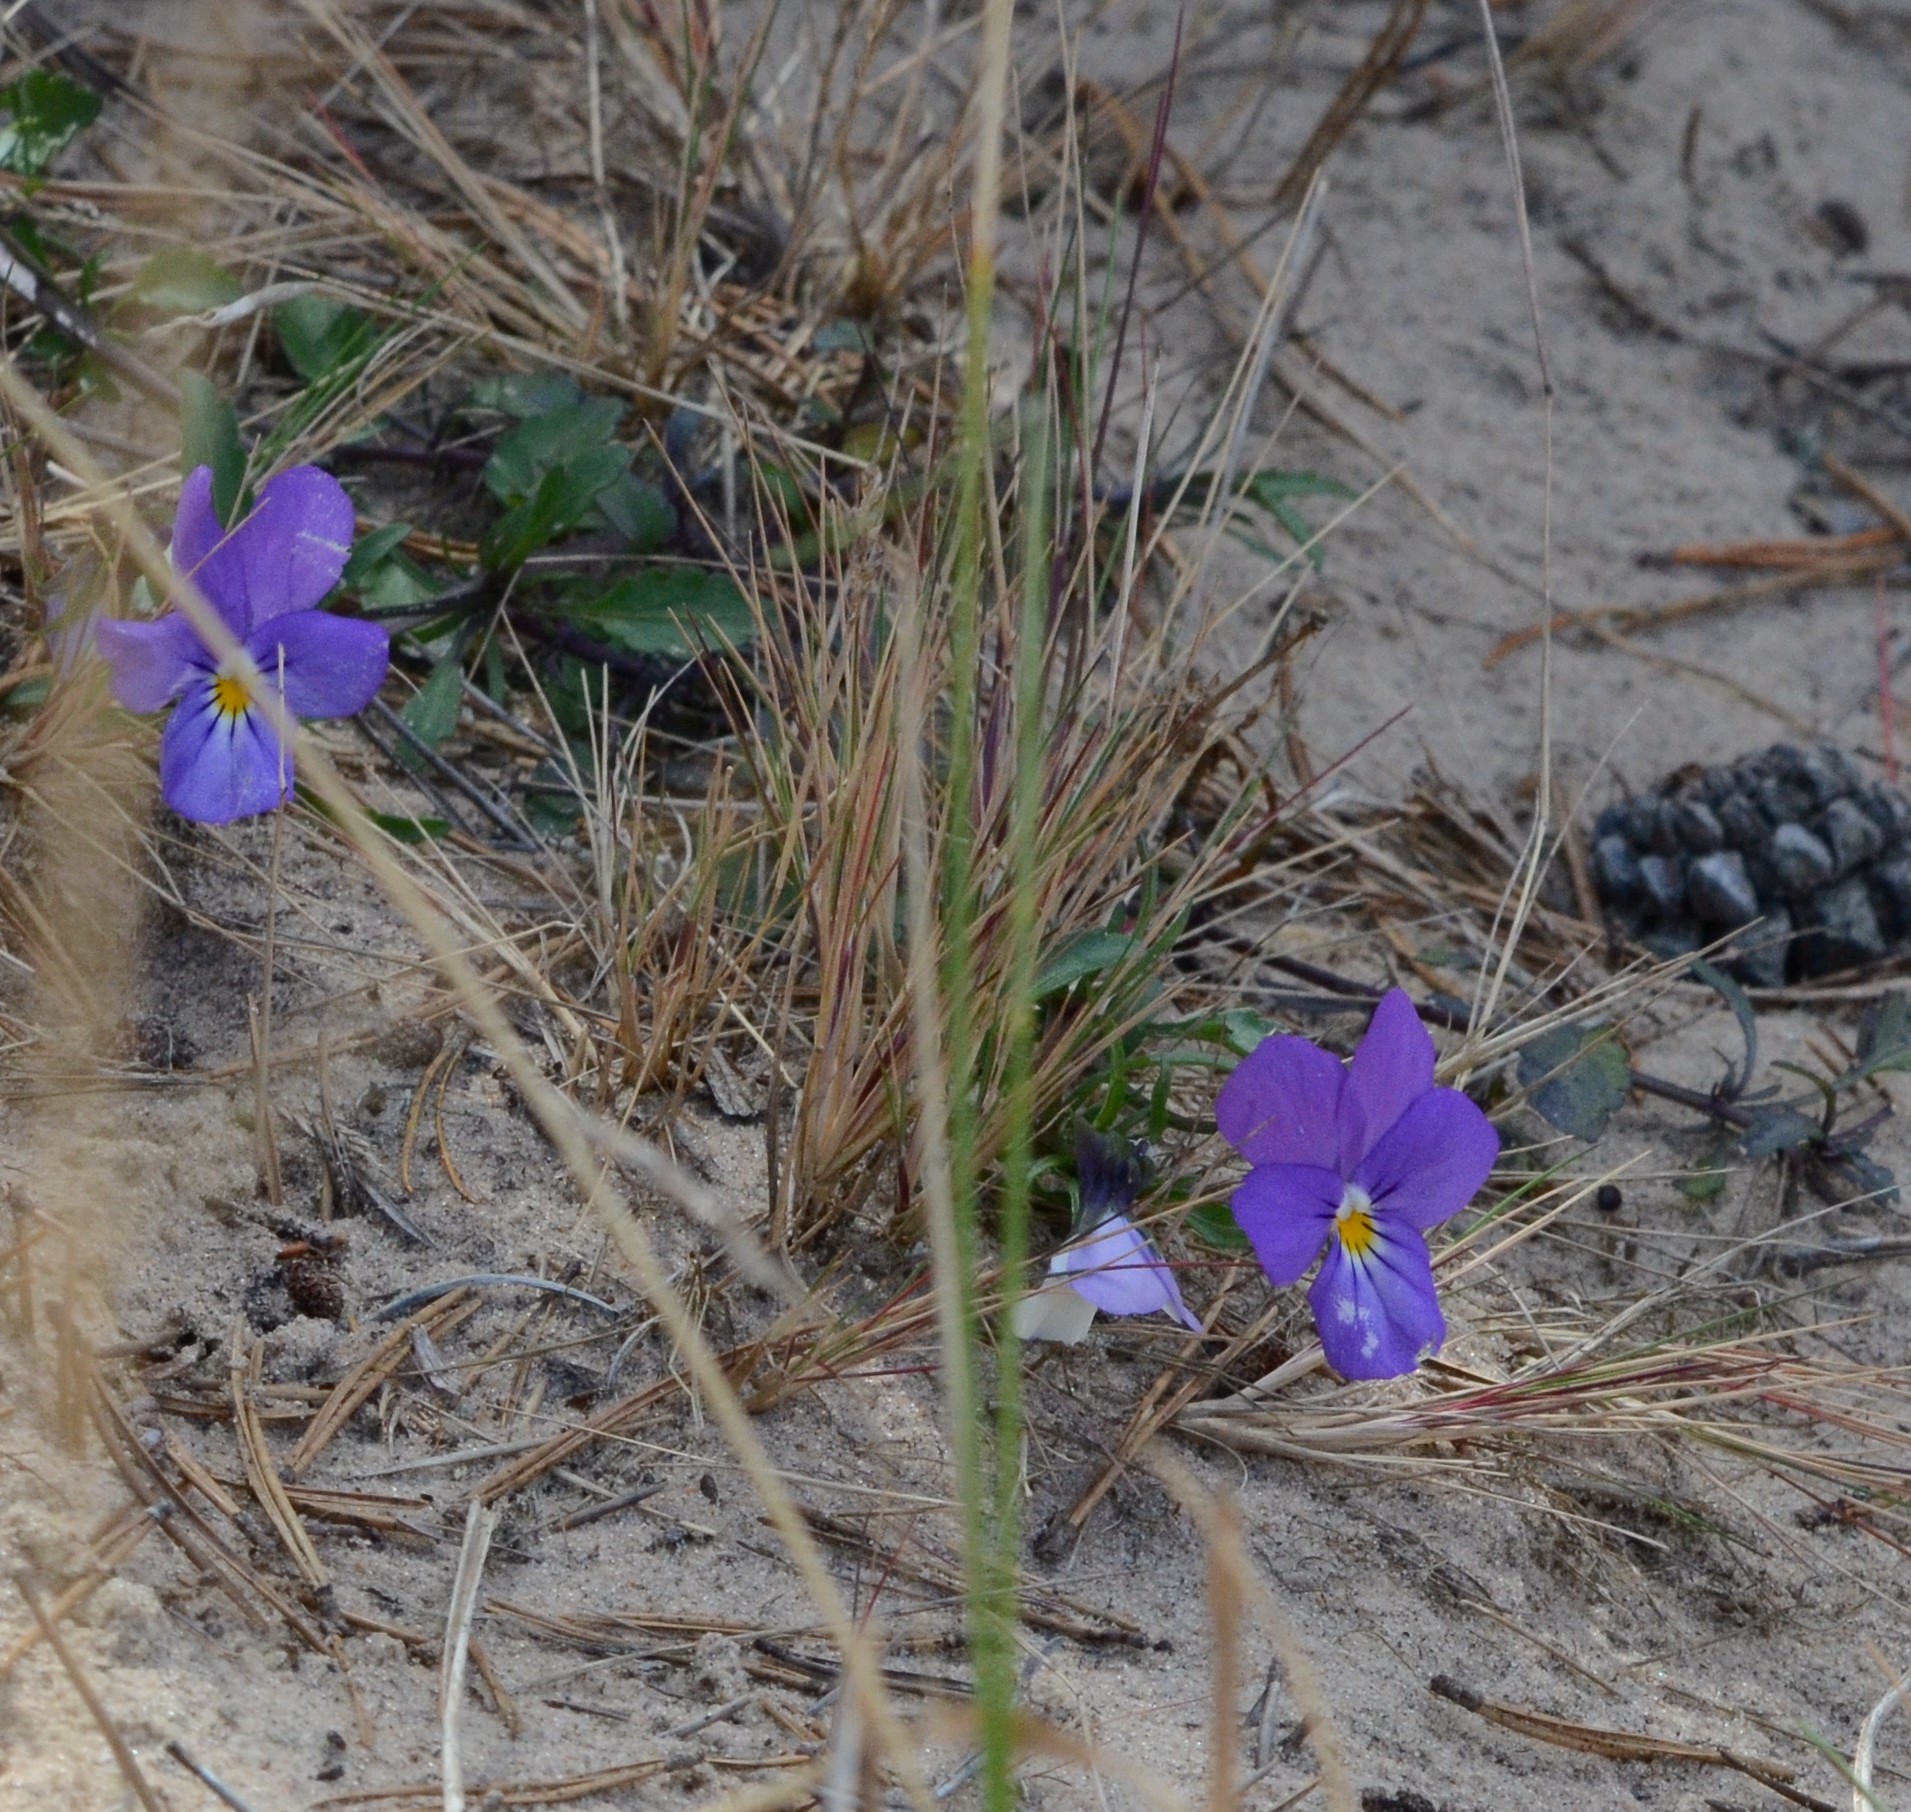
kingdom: Plantae
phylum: Tracheophyta
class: Magnoliopsida
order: Malpighiales
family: Violaceae
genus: Viola
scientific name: Viola tricolor
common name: Pansy
